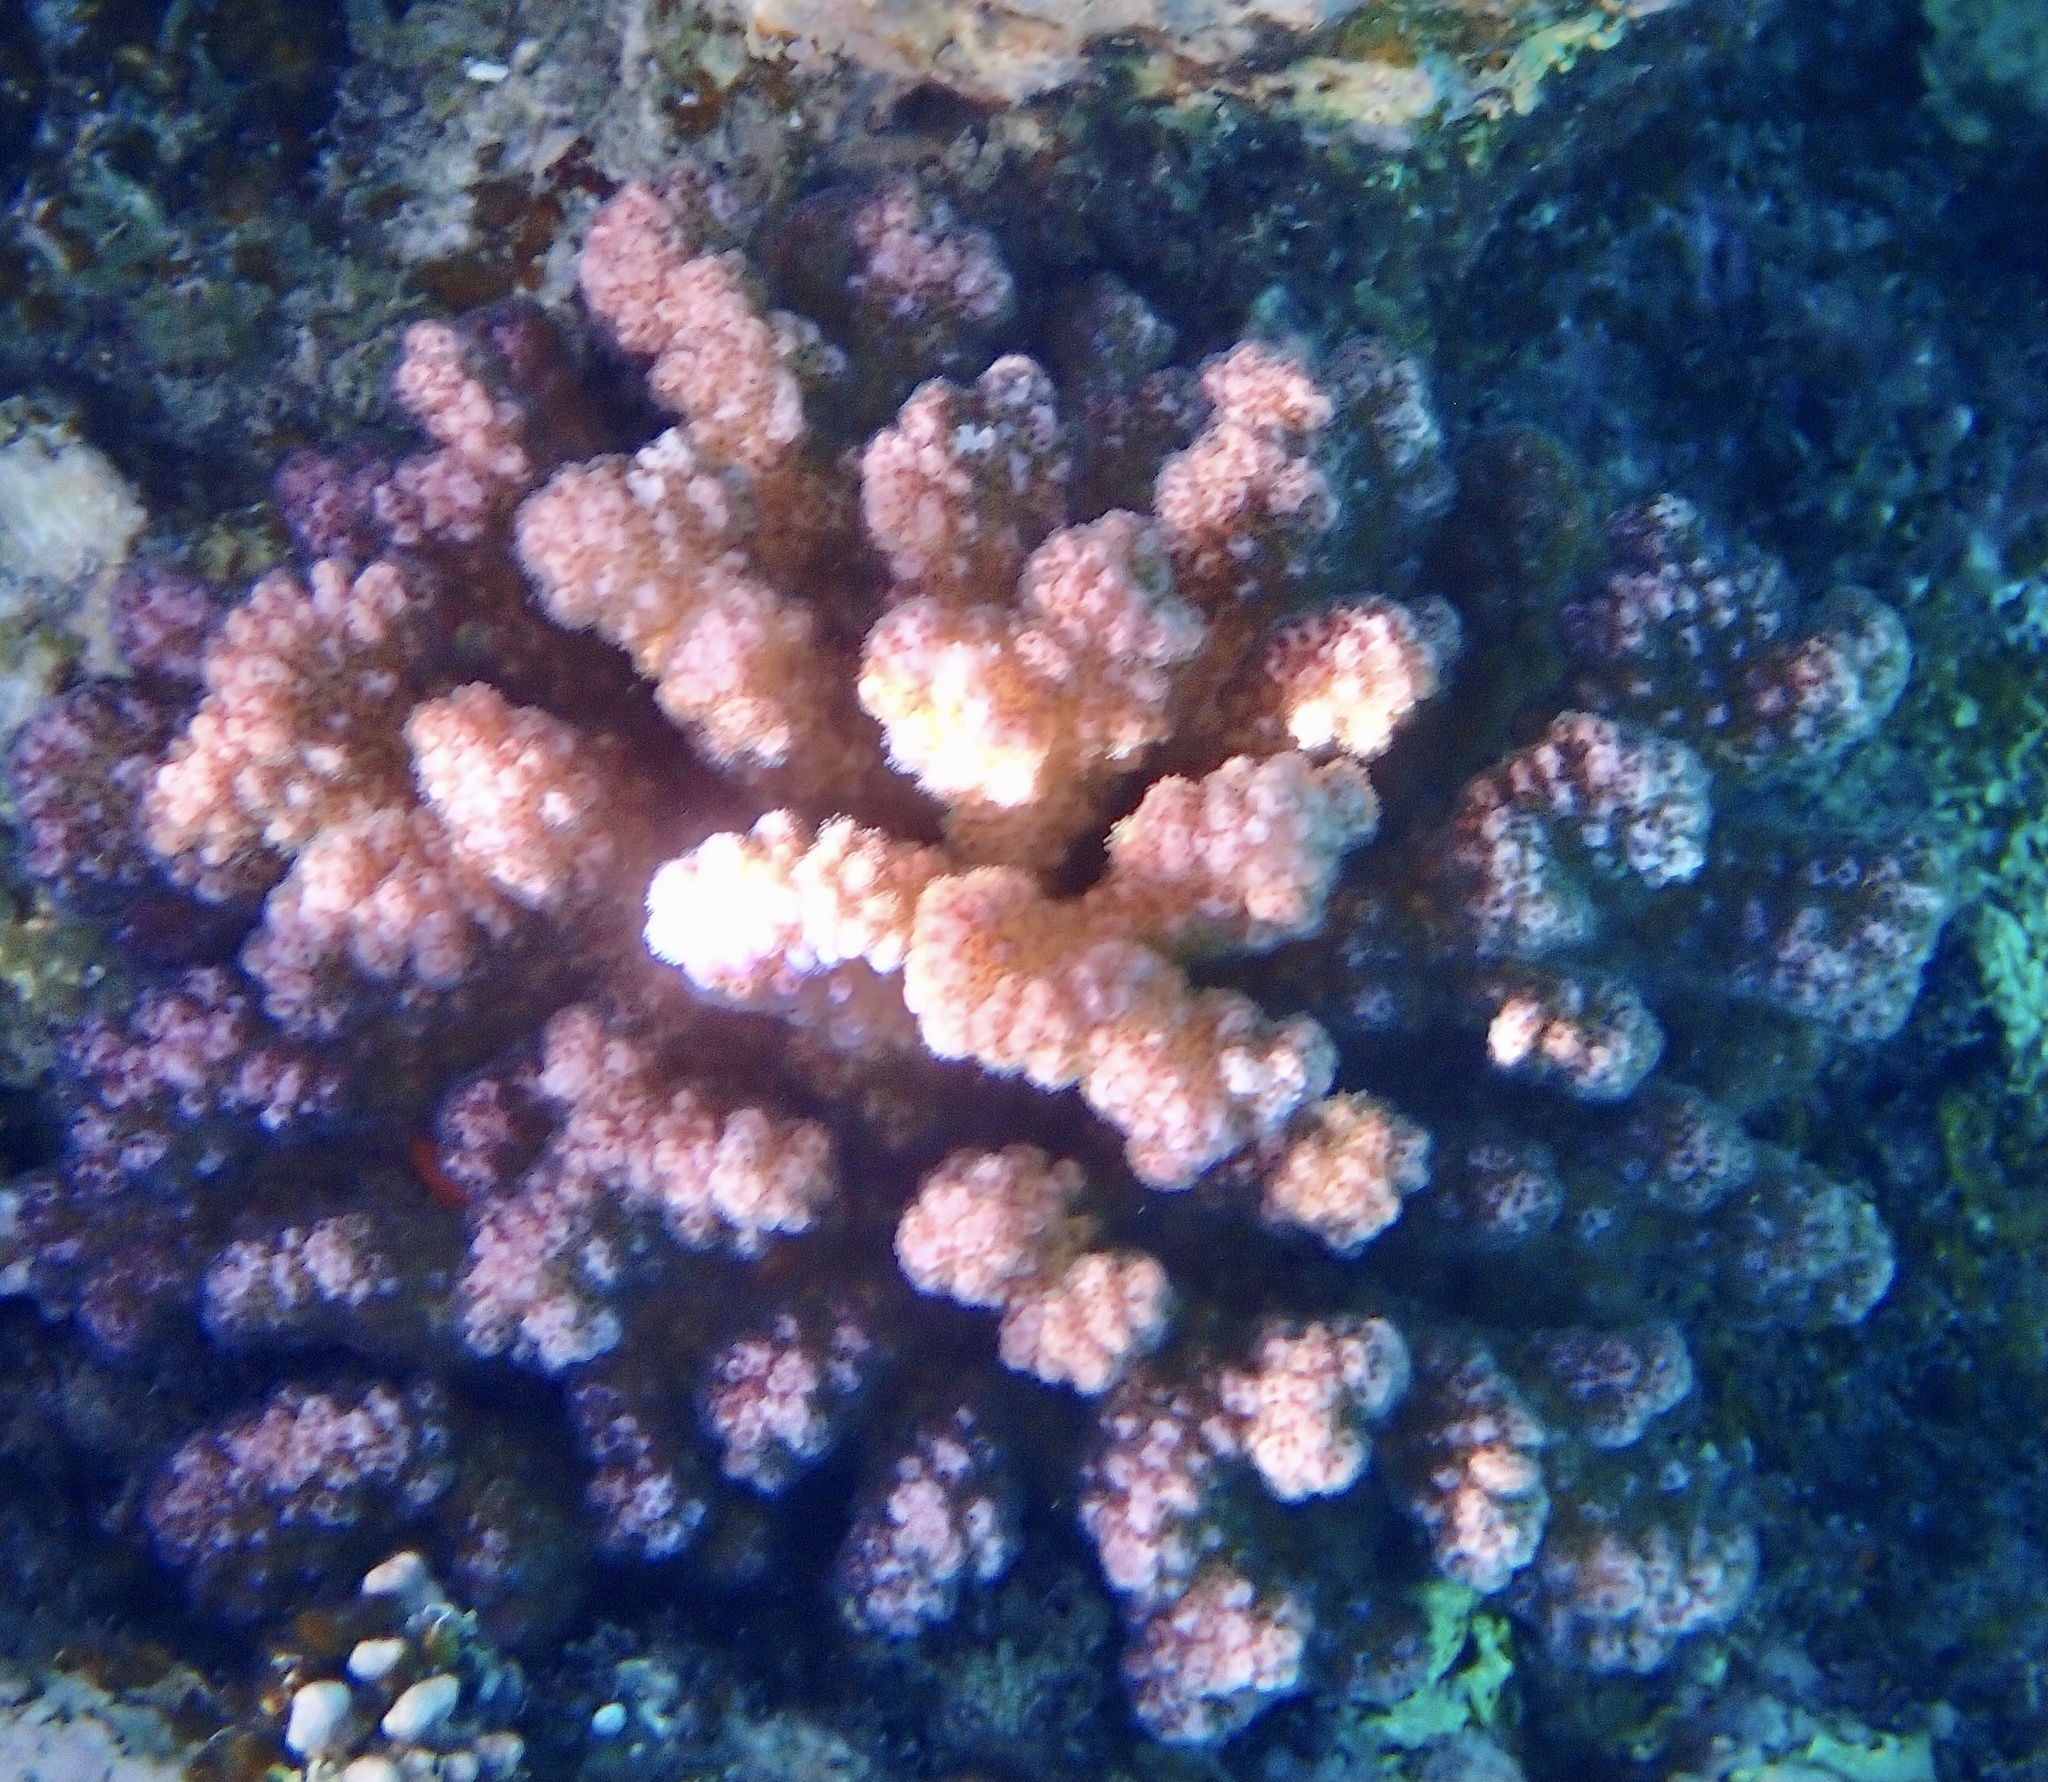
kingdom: Animalia
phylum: Cnidaria
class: Anthozoa
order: Scleractinia
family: Pocilloporidae
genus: Pocillopora
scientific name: Pocillopora verrucosa
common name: Cauliflower coral
